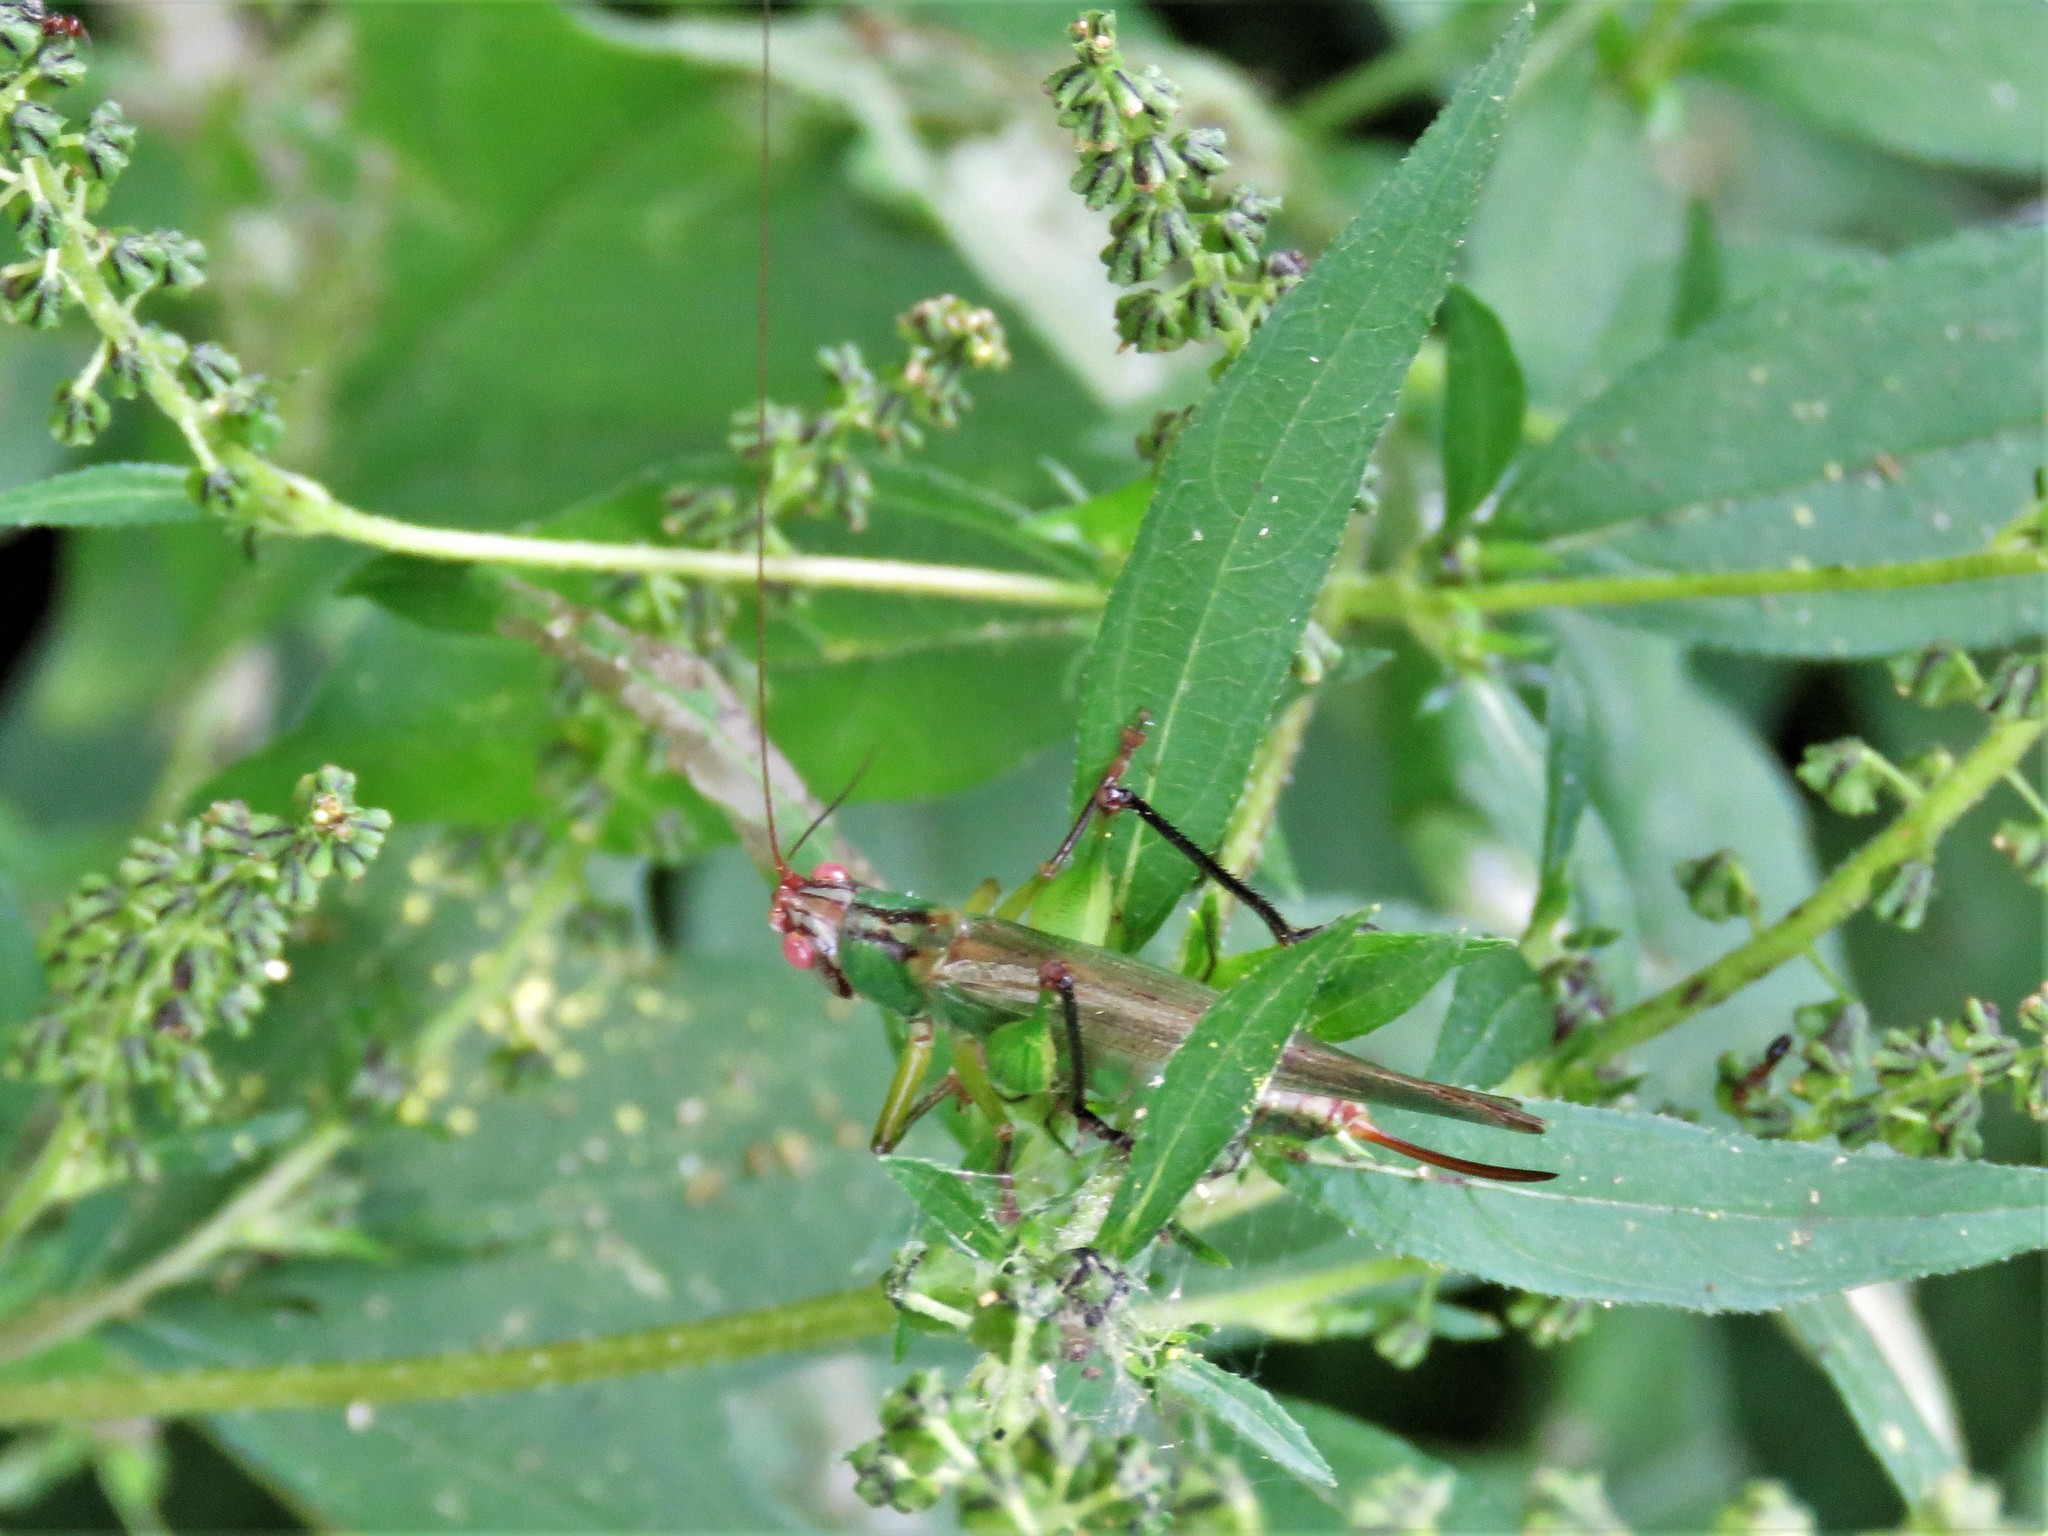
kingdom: Animalia
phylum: Arthropoda
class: Insecta
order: Orthoptera
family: Tettigoniidae
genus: Orchelimum
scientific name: Orchelimum nigripes
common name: Black-legged meadow katydid
